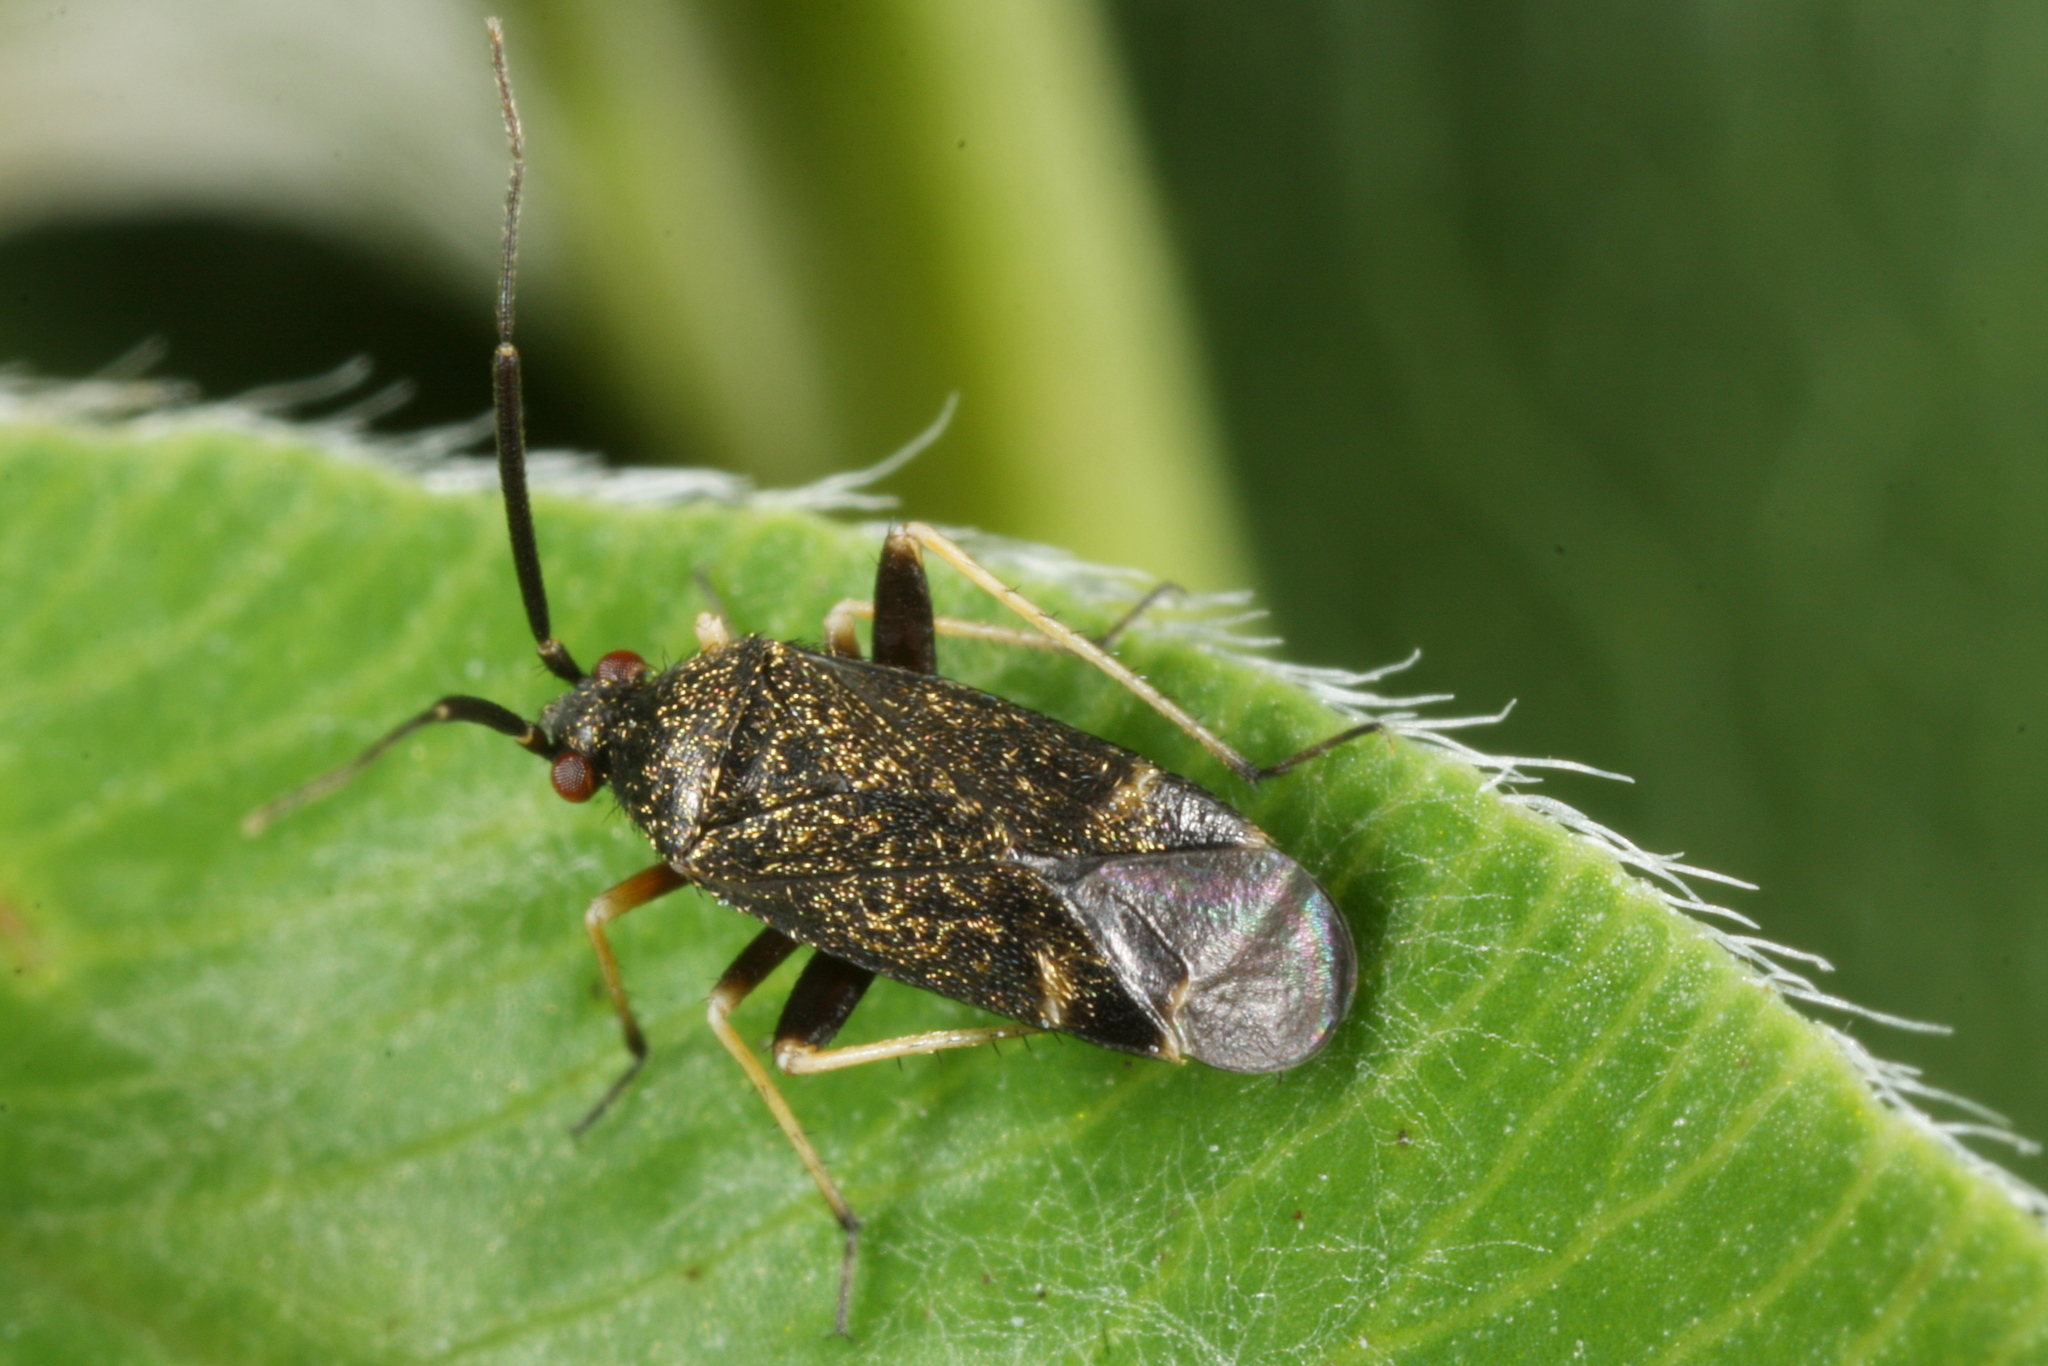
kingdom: Animalia
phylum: Arthropoda
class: Insecta
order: Hemiptera
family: Miridae
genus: Criocoris
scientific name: Criocoris crassicornis
